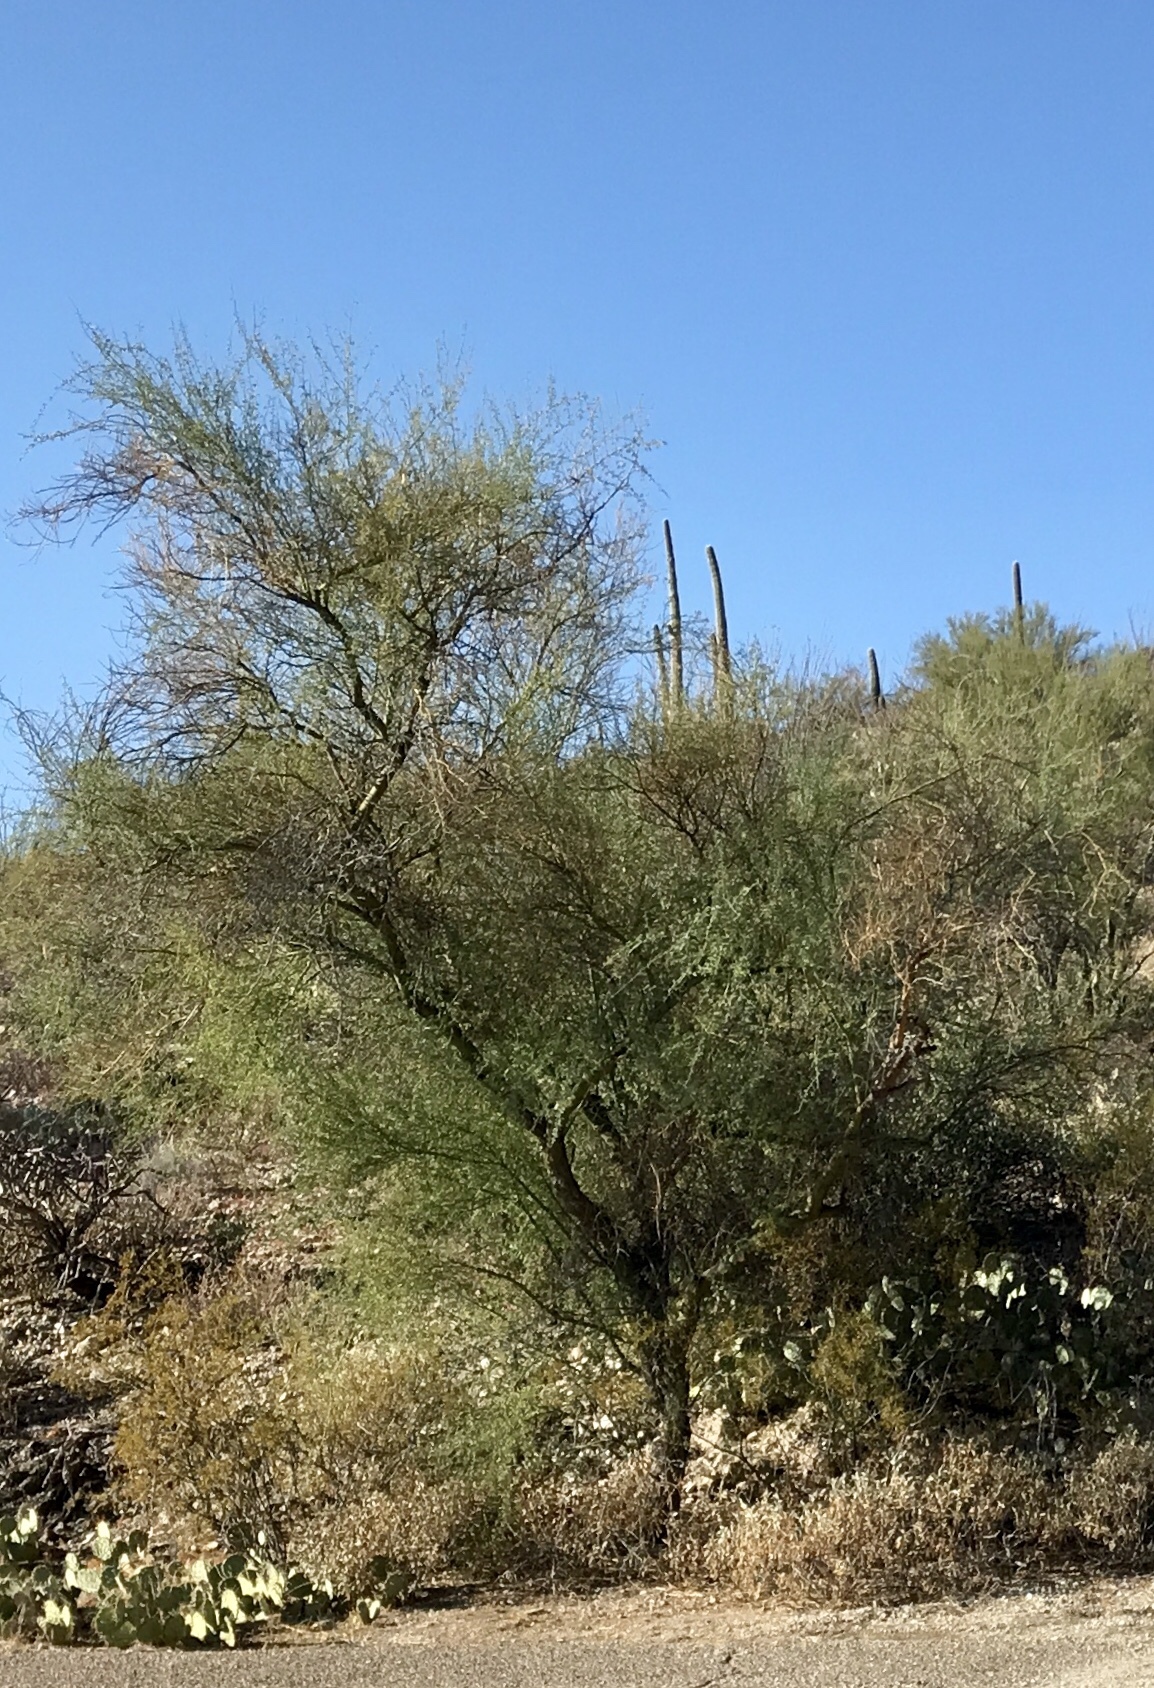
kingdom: Plantae
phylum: Tracheophyta
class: Magnoliopsida
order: Fabales
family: Fabaceae
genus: Parkinsonia
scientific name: Parkinsonia microphylla
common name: Yellow paloverde
